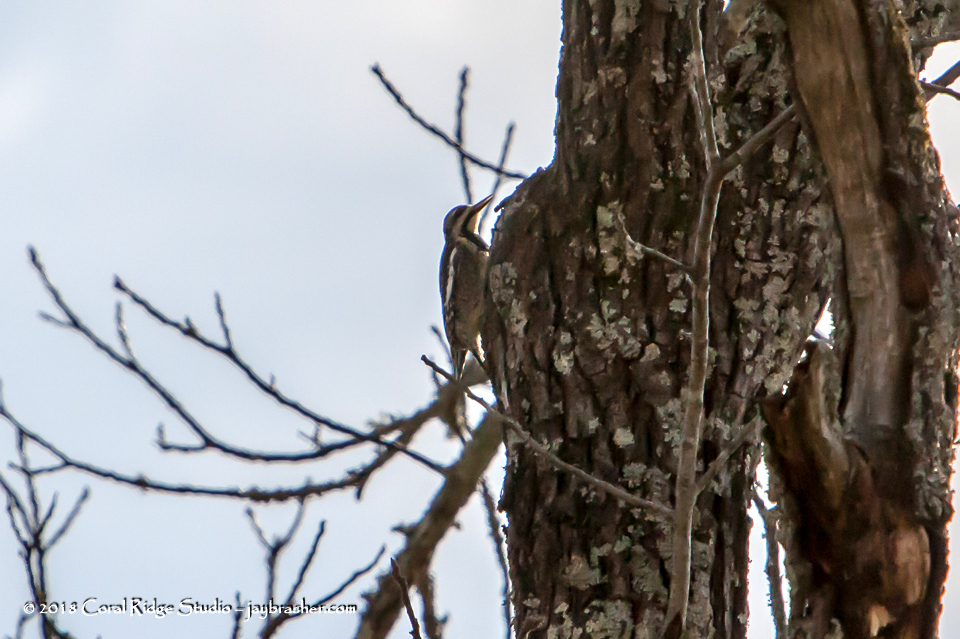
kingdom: Animalia
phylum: Chordata
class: Aves
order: Piciformes
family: Picidae
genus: Sphyrapicus
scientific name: Sphyrapicus varius
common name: Yellow-bellied sapsucker
